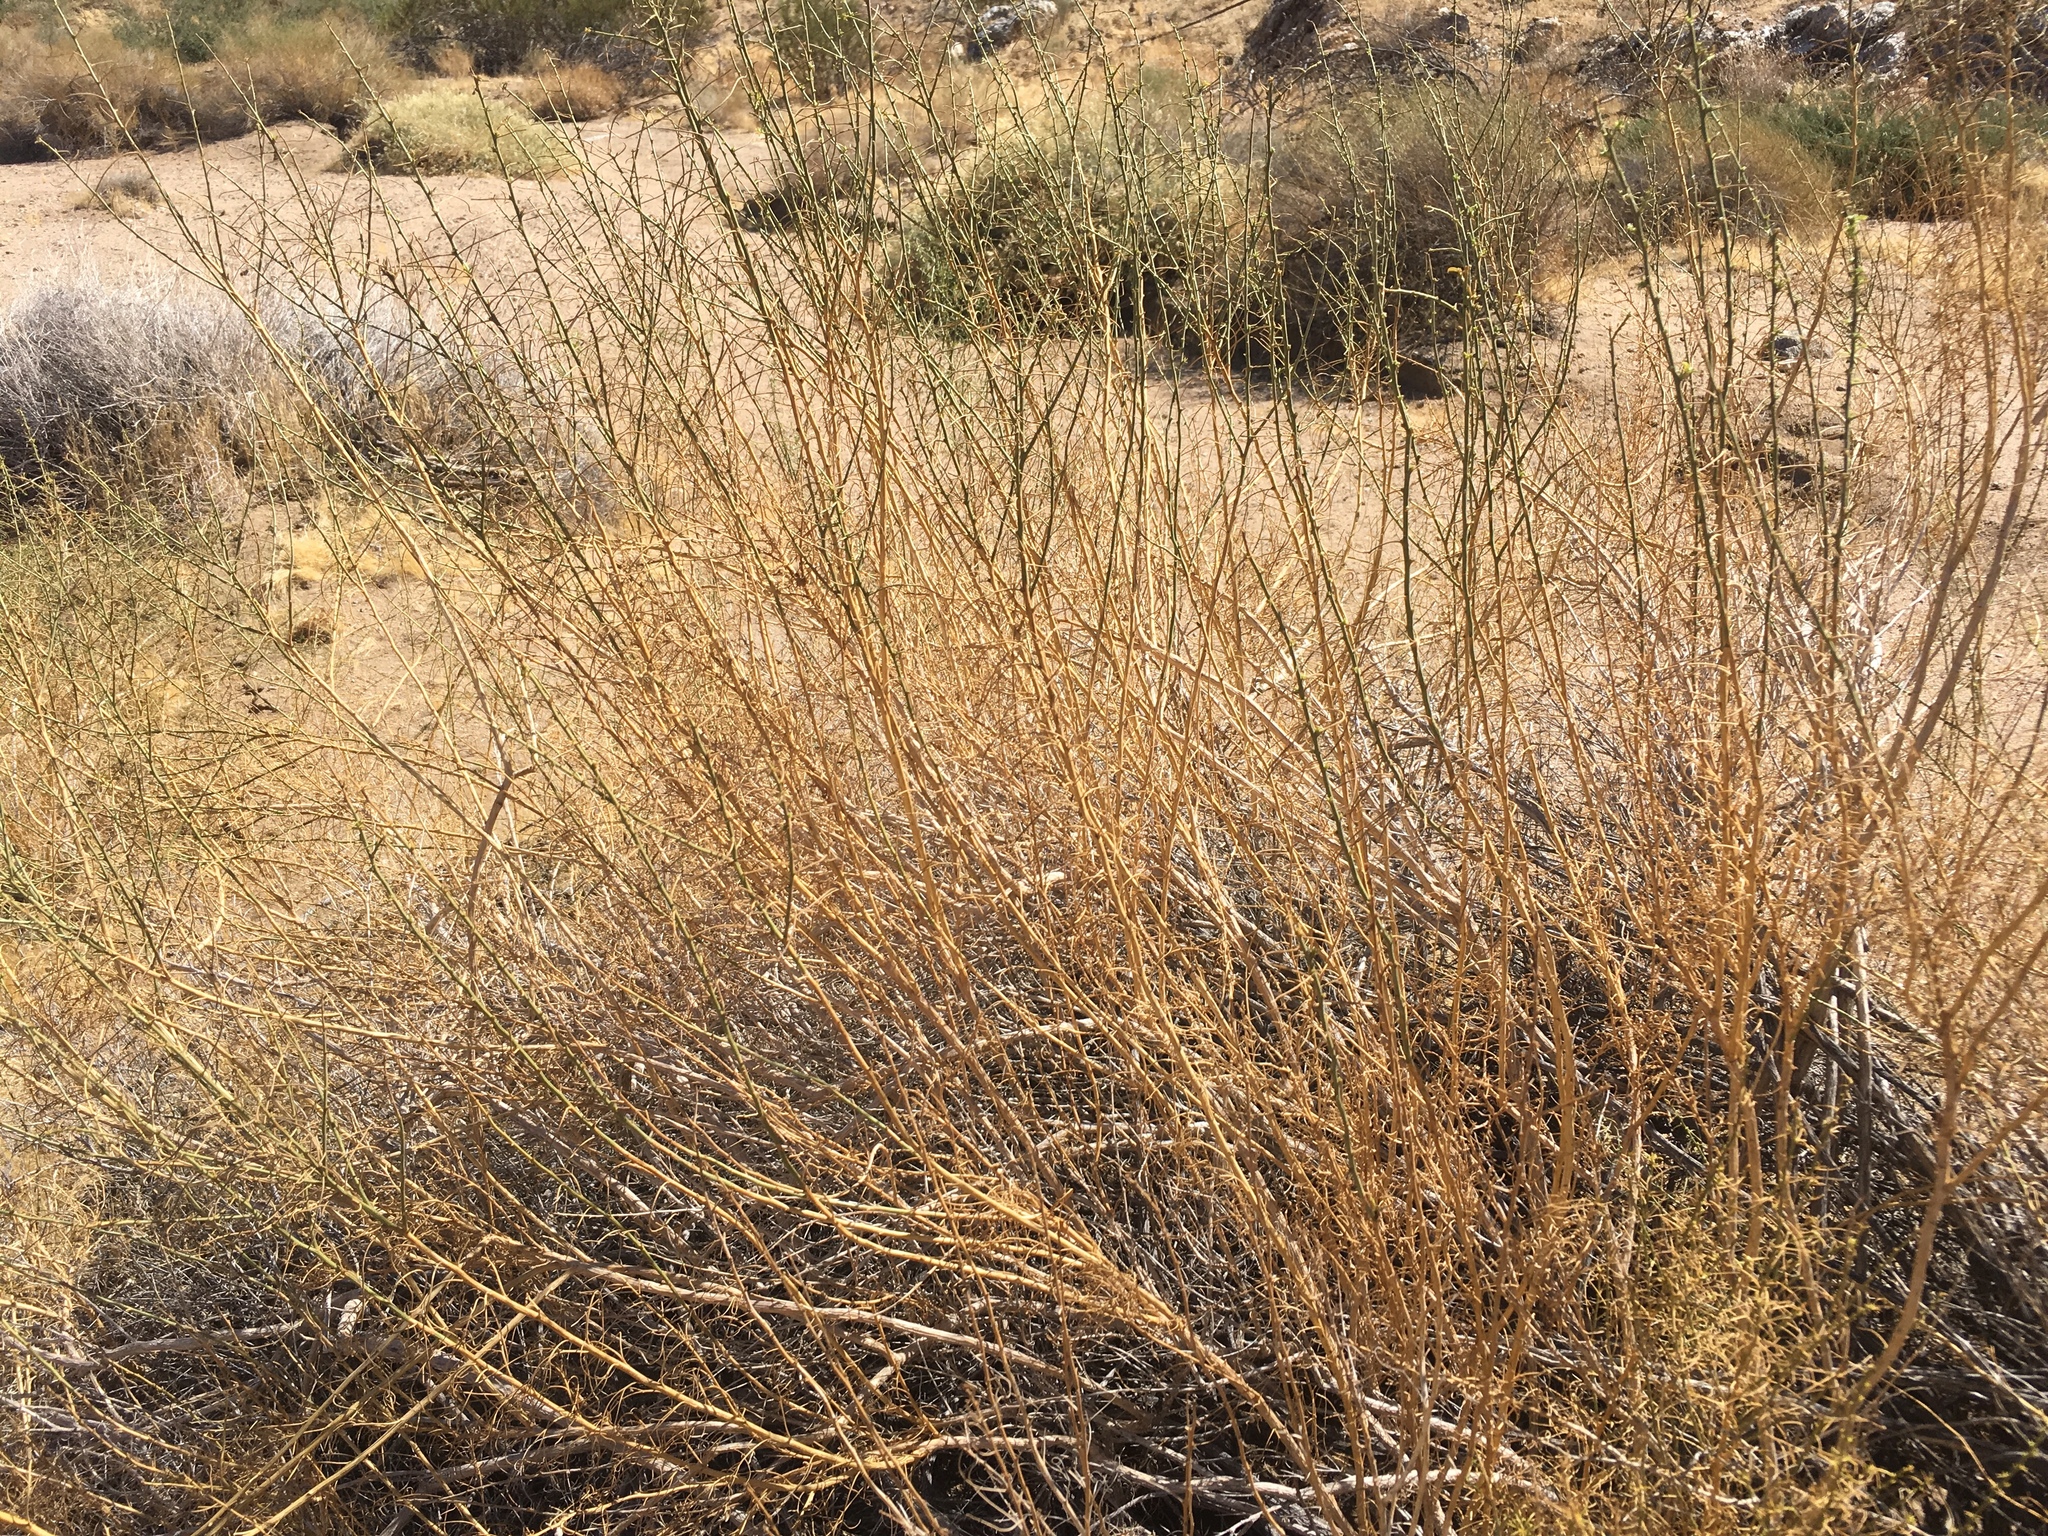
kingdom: Plantae
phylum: Tracheophyta
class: Magnoliopsida
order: Asterales
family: Asteraceae
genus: Ambrosia
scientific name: Ambrosia salsola
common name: Burrobrush
